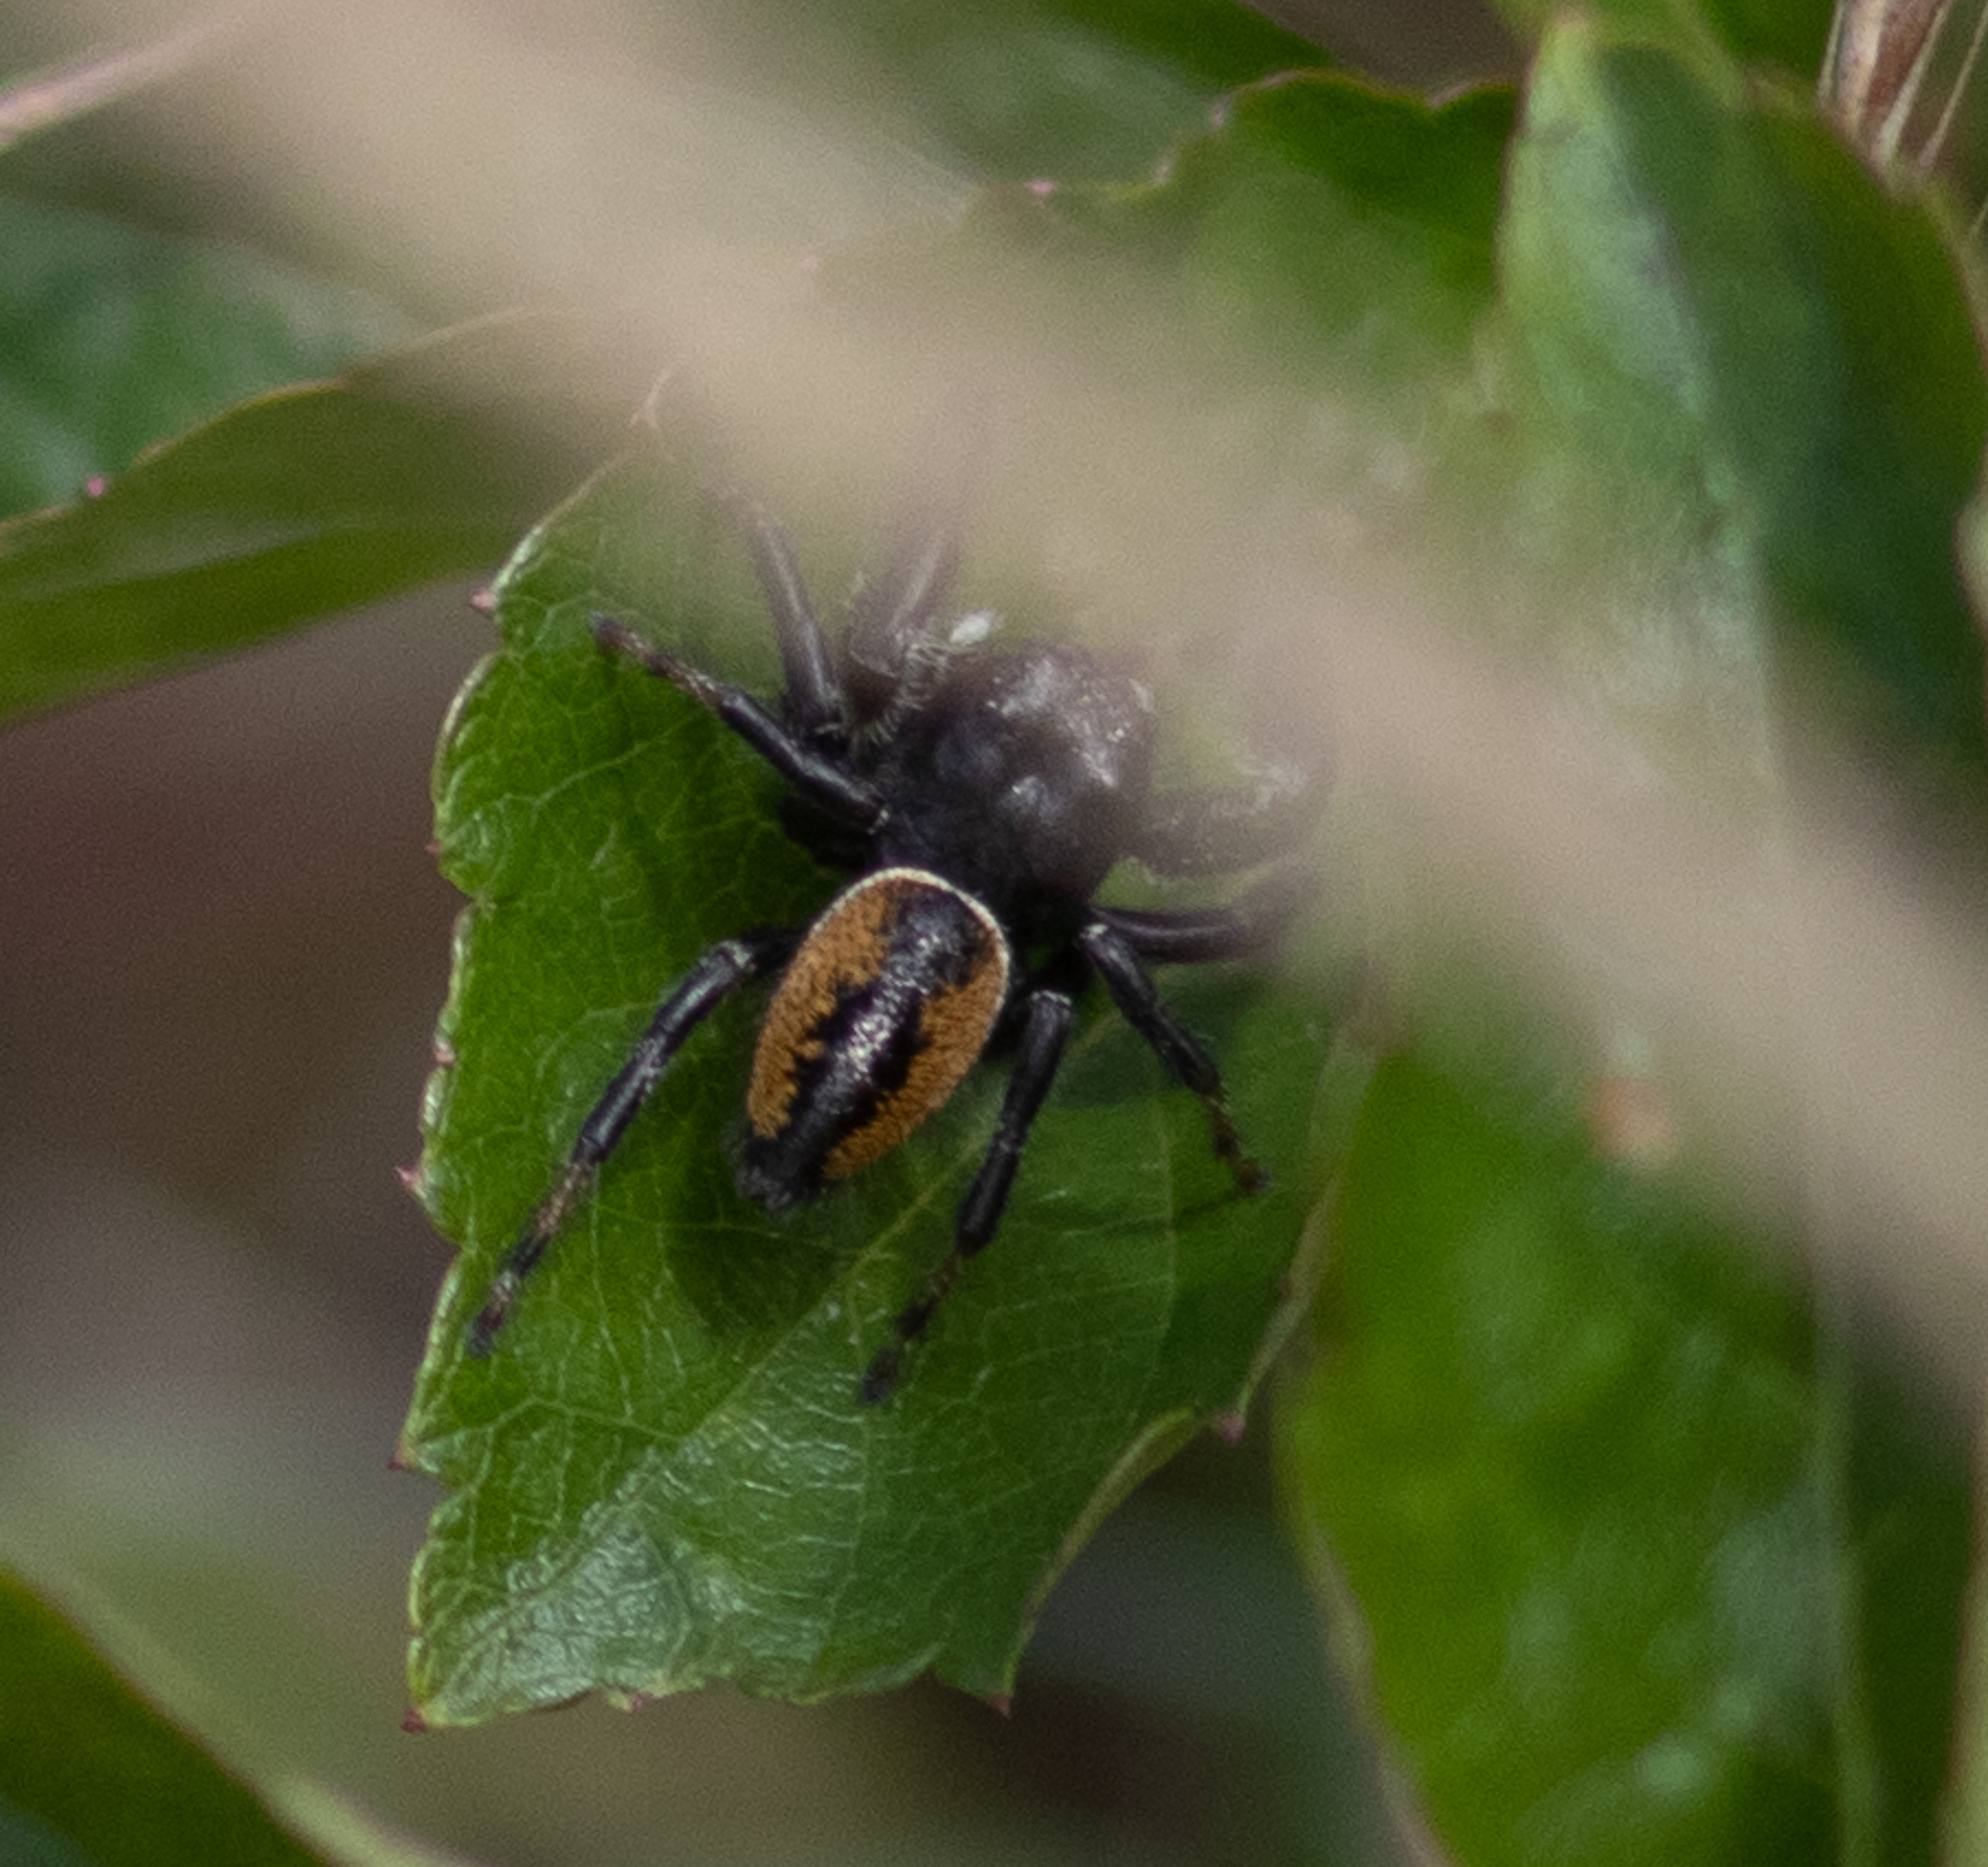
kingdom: Animalia
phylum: Arthropoda
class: Arachnida
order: Araneae
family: Salticidae
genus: Phidippus
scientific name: Phidippus clarus
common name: Brilliant jumping spider
